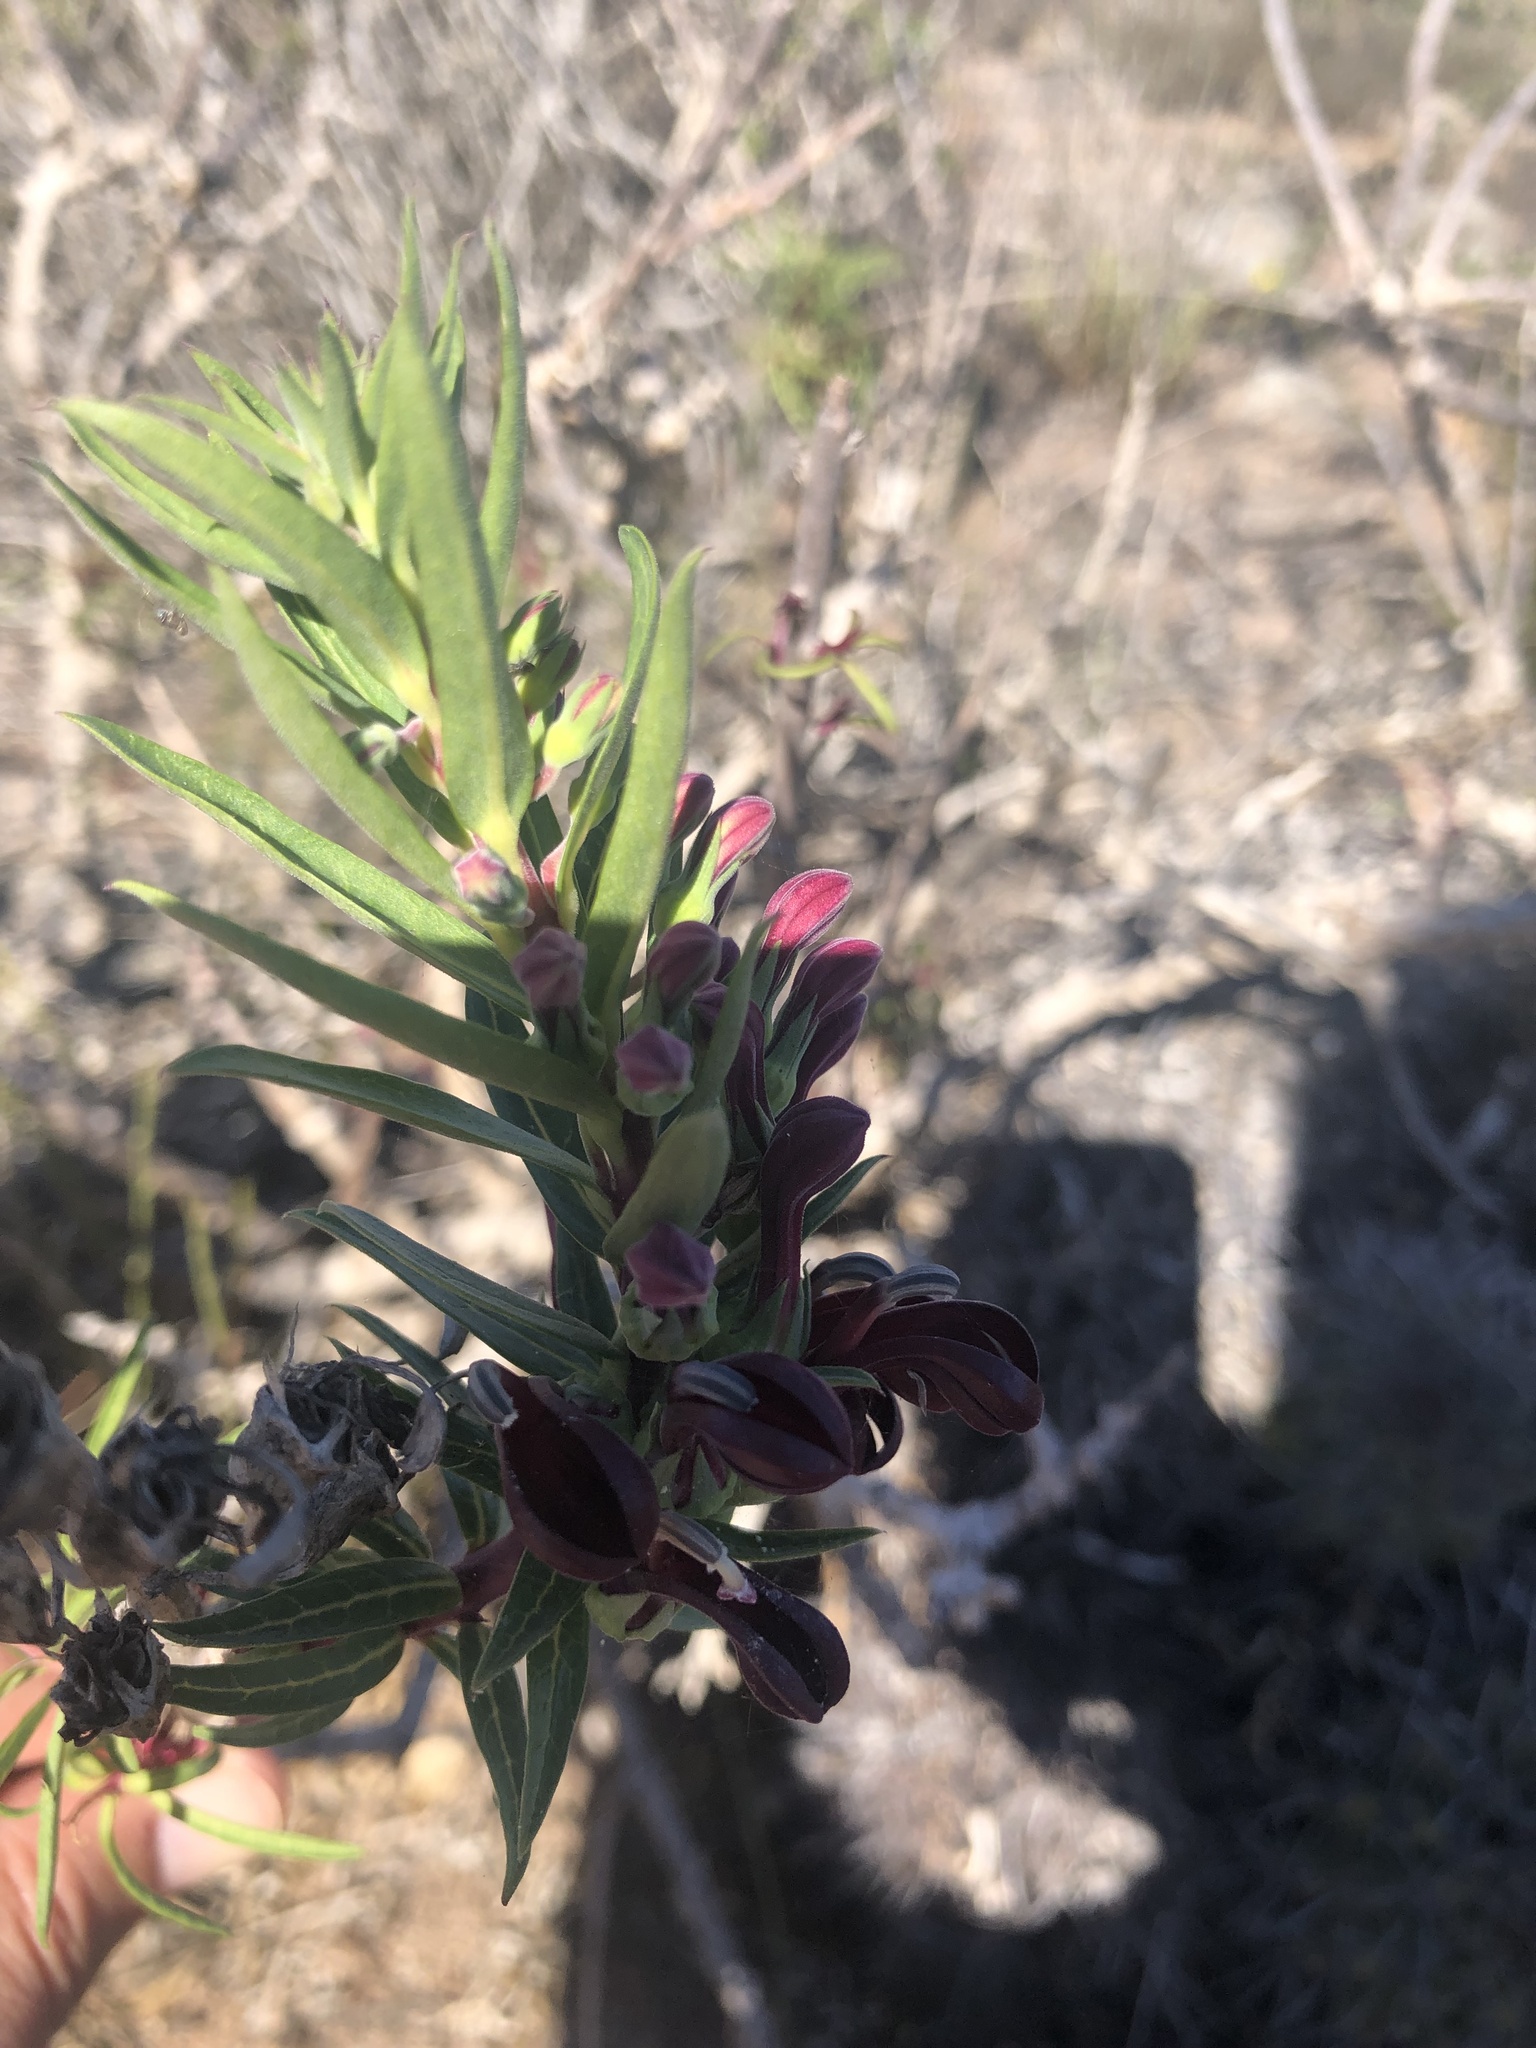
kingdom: Plantae
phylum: Tracheophyta
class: Magnoliopsida
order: Asterales
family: Campanulaceae
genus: Lobelia
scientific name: Lobelia polyphylla
